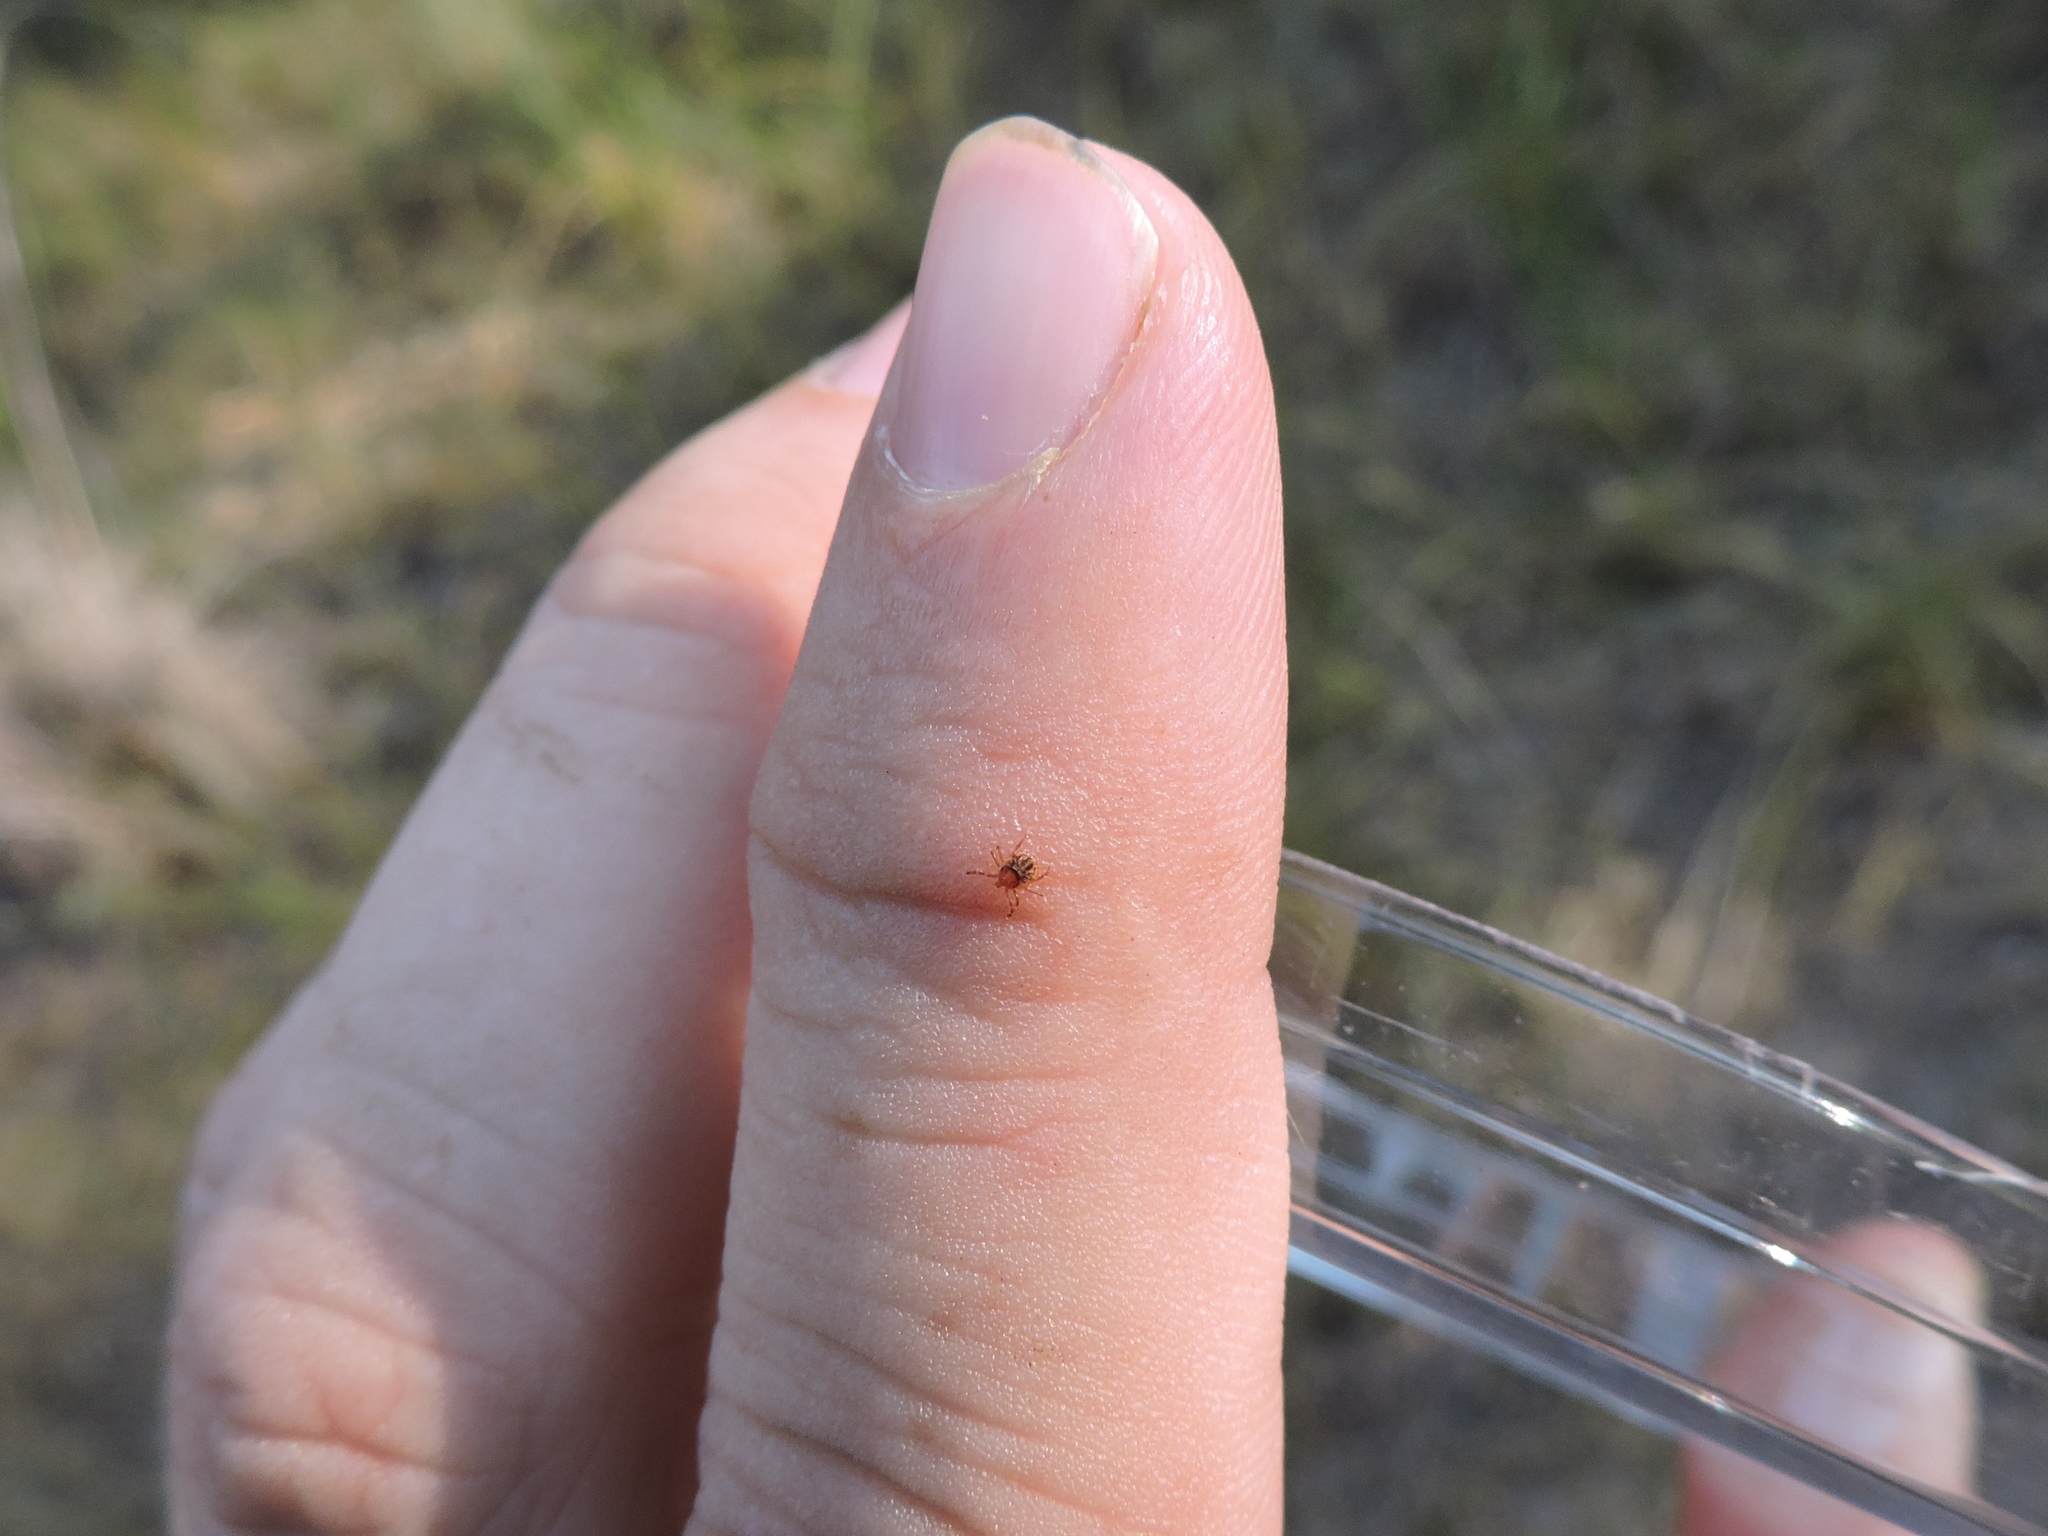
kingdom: Animalia
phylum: Arthropoda
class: Arachnida
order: Ixodida
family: Ixodidae
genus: Amblyomma
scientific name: Amblyomma americanum
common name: Lone star tick
